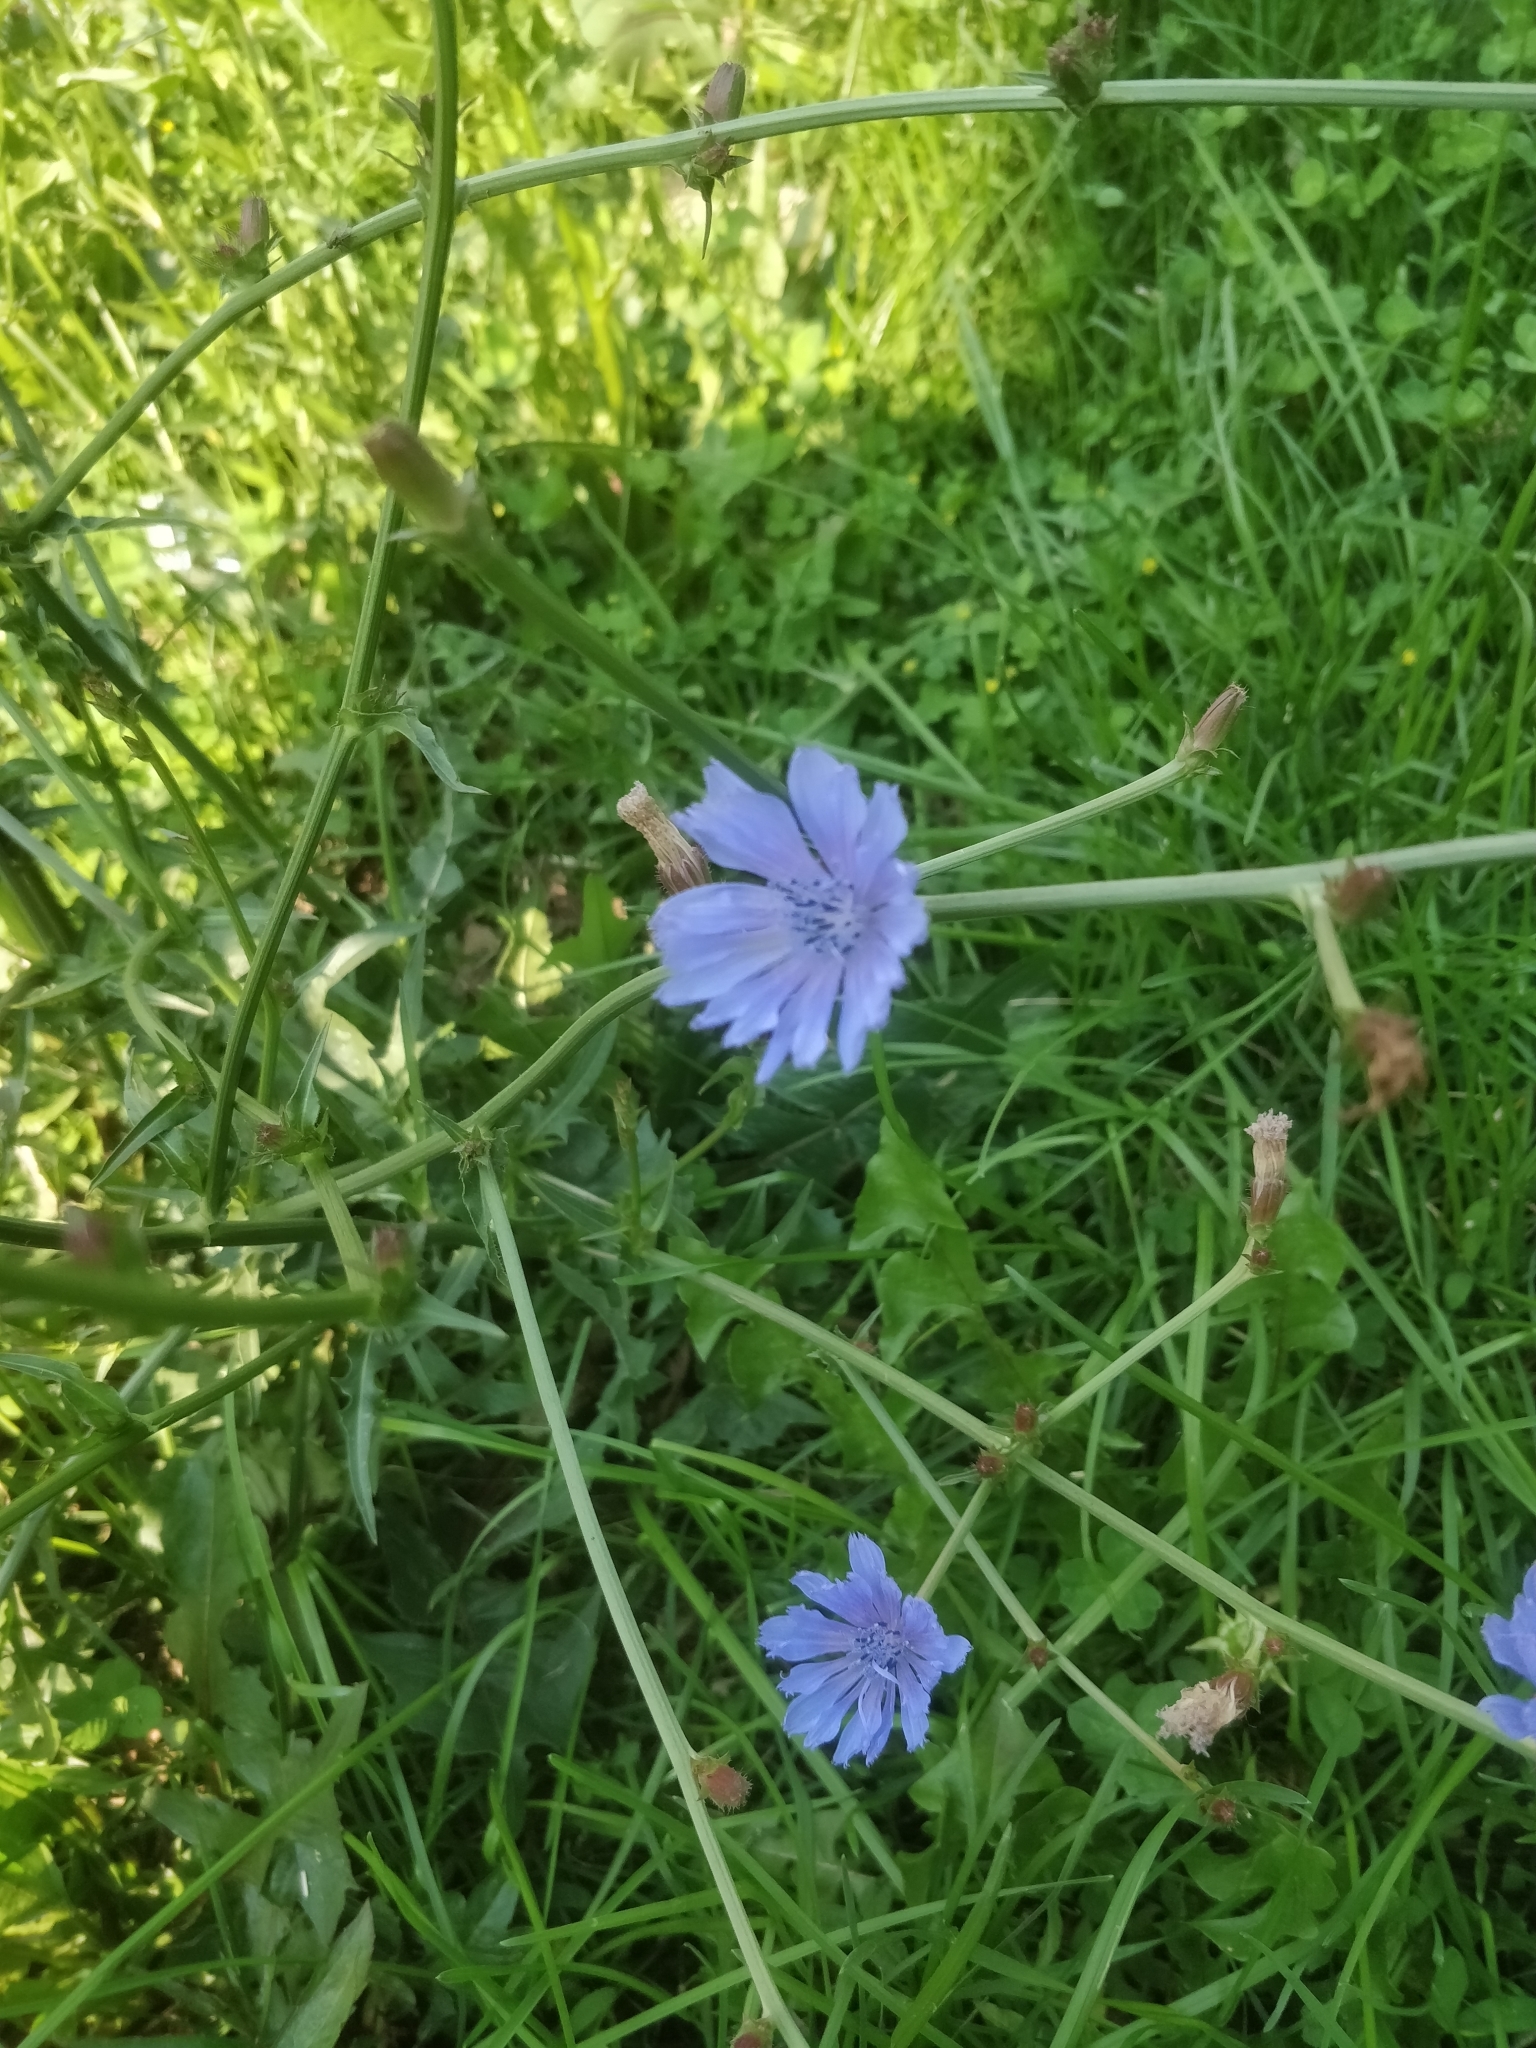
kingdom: Plantae
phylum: Tracheophyta
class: Magnoliopsida
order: Asterales
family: Asteraceae
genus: Cichorium
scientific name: Cichorium intybus
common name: Chicory
